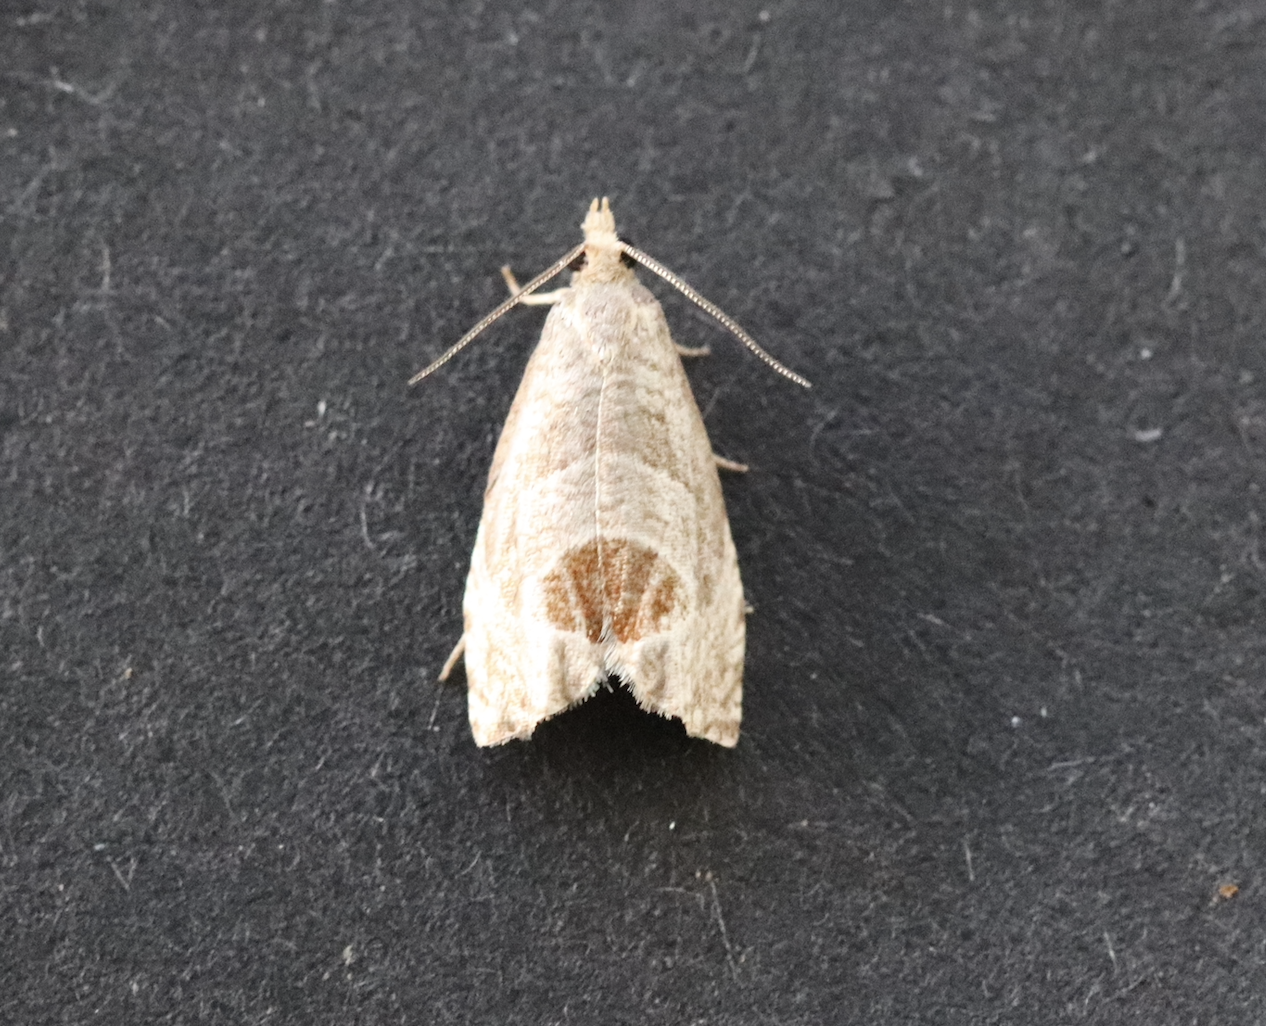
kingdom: Animalia
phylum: Arthropoda
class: Insecta
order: Lepidoptera
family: Tortricidae
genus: Notocelia
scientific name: Notocelia uddmanniana
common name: Bramble shoot moth
